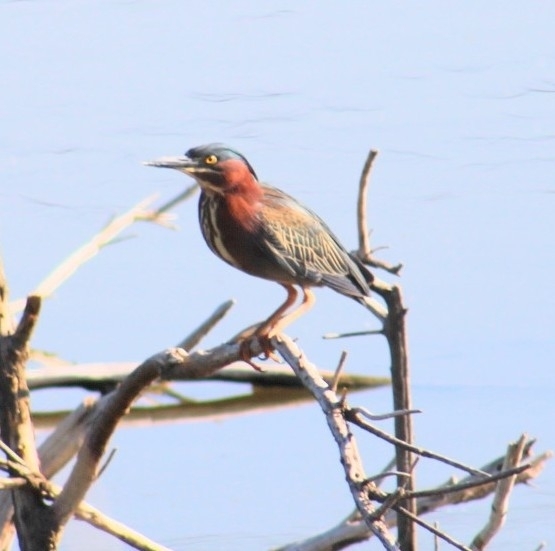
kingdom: Animalia
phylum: Chordata
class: Aves
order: Pelecaniformes
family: Ardeidae
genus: Butorides
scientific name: Butorides virescens
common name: Green heron
